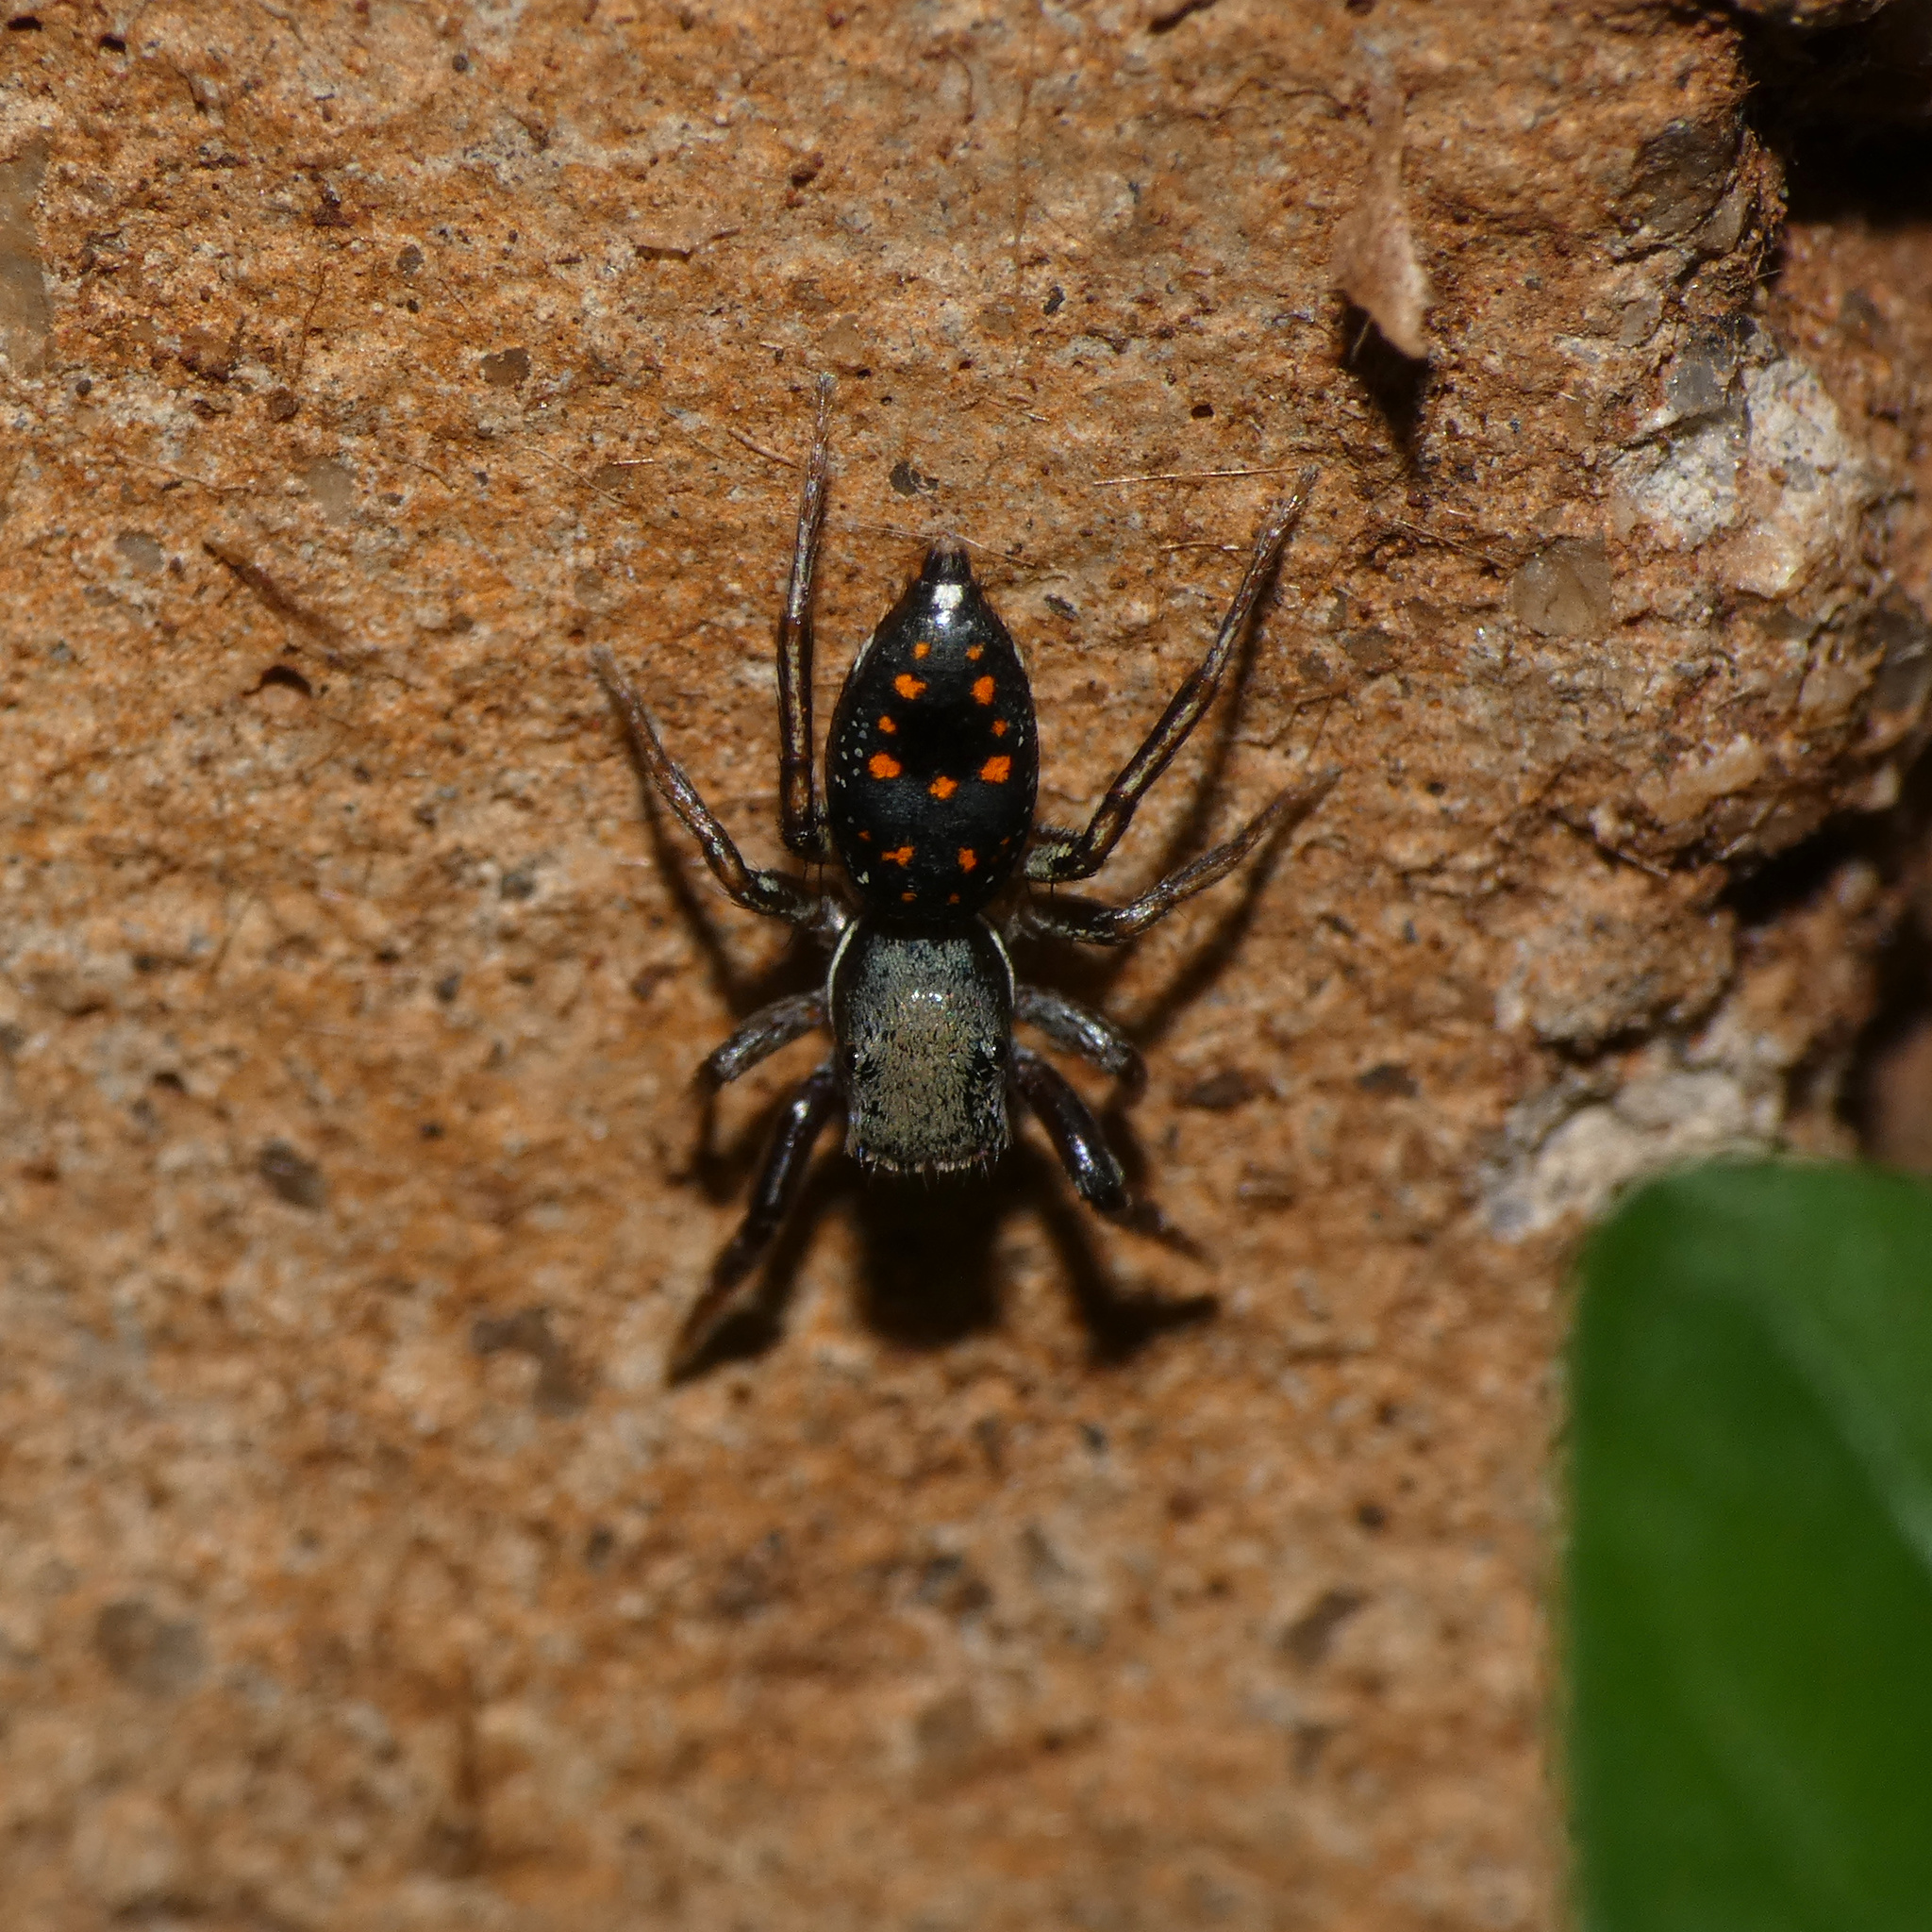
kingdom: Animalia
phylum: Arthropoda
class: Arachnida
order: Araneae
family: Salticidae
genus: Natta
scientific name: Natta horizontalis
